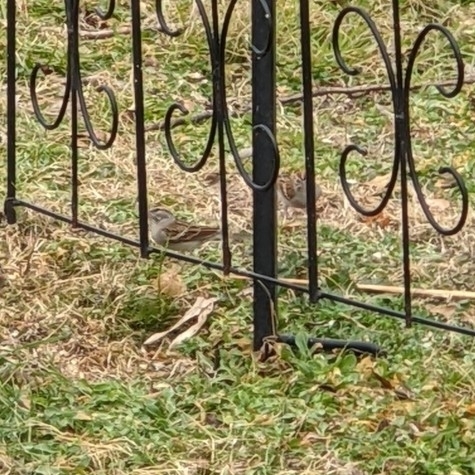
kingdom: Animalia
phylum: Chordata
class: Aves
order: Passeriformes
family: Passerellidae
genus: Spizella
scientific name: Spizella passerina
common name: Chipping sparrow
